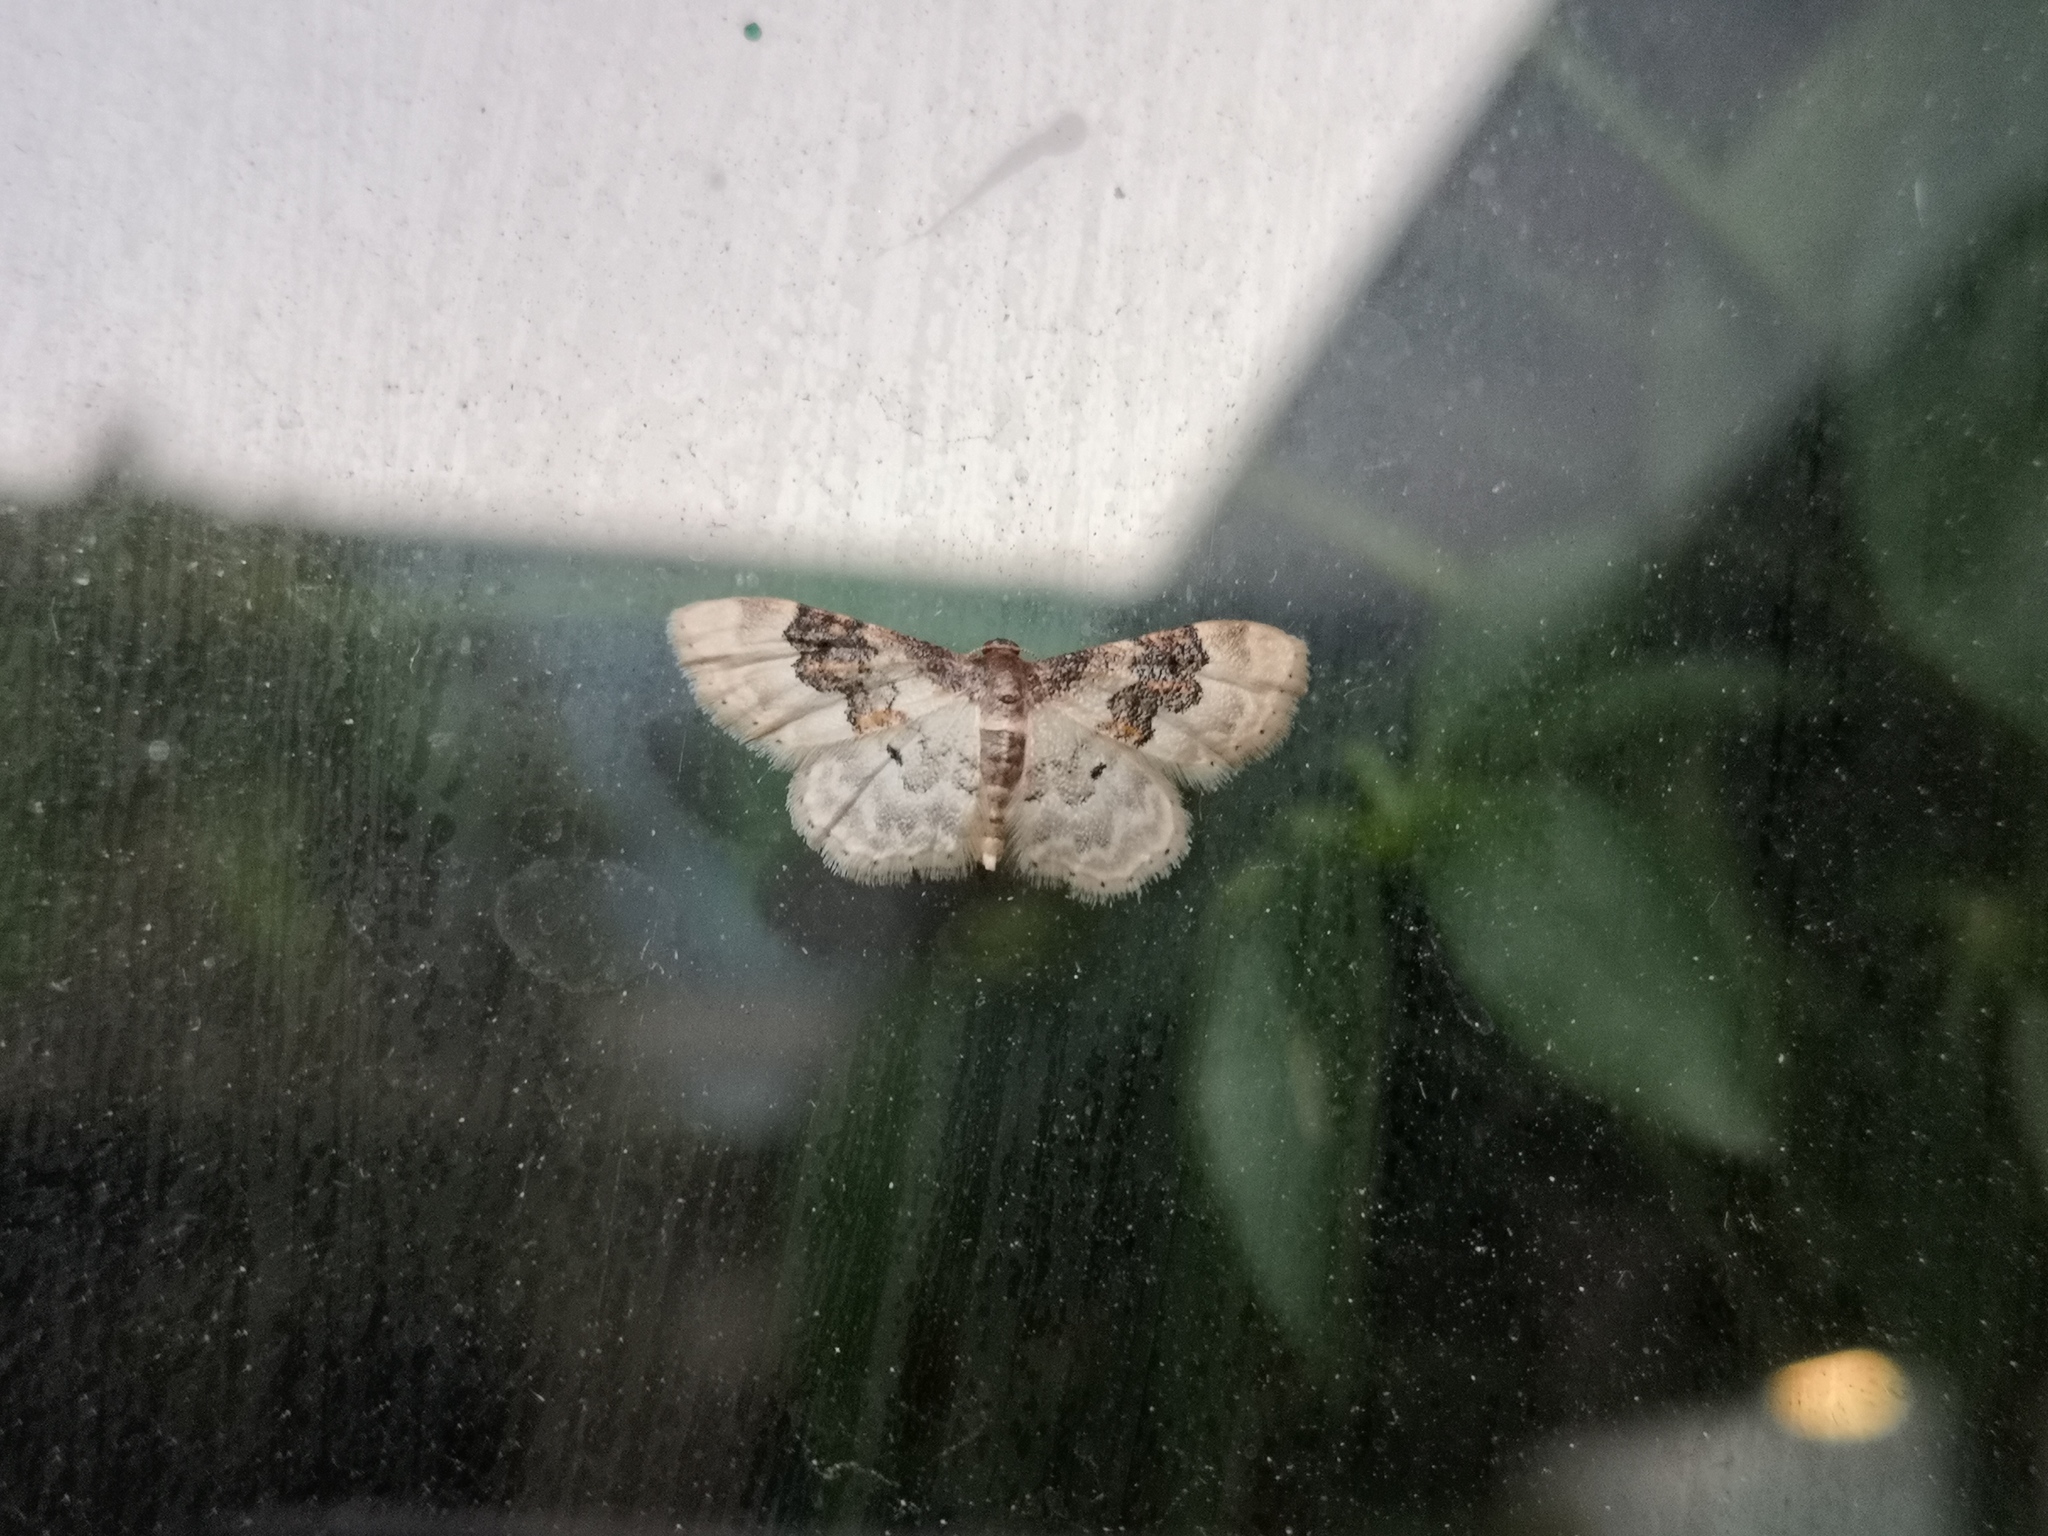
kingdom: Animalia
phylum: Arthropoda
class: Insecta
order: Lepidoptera
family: Geometridae
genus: Idaea
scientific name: Idaea rusticata
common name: Least carpet
